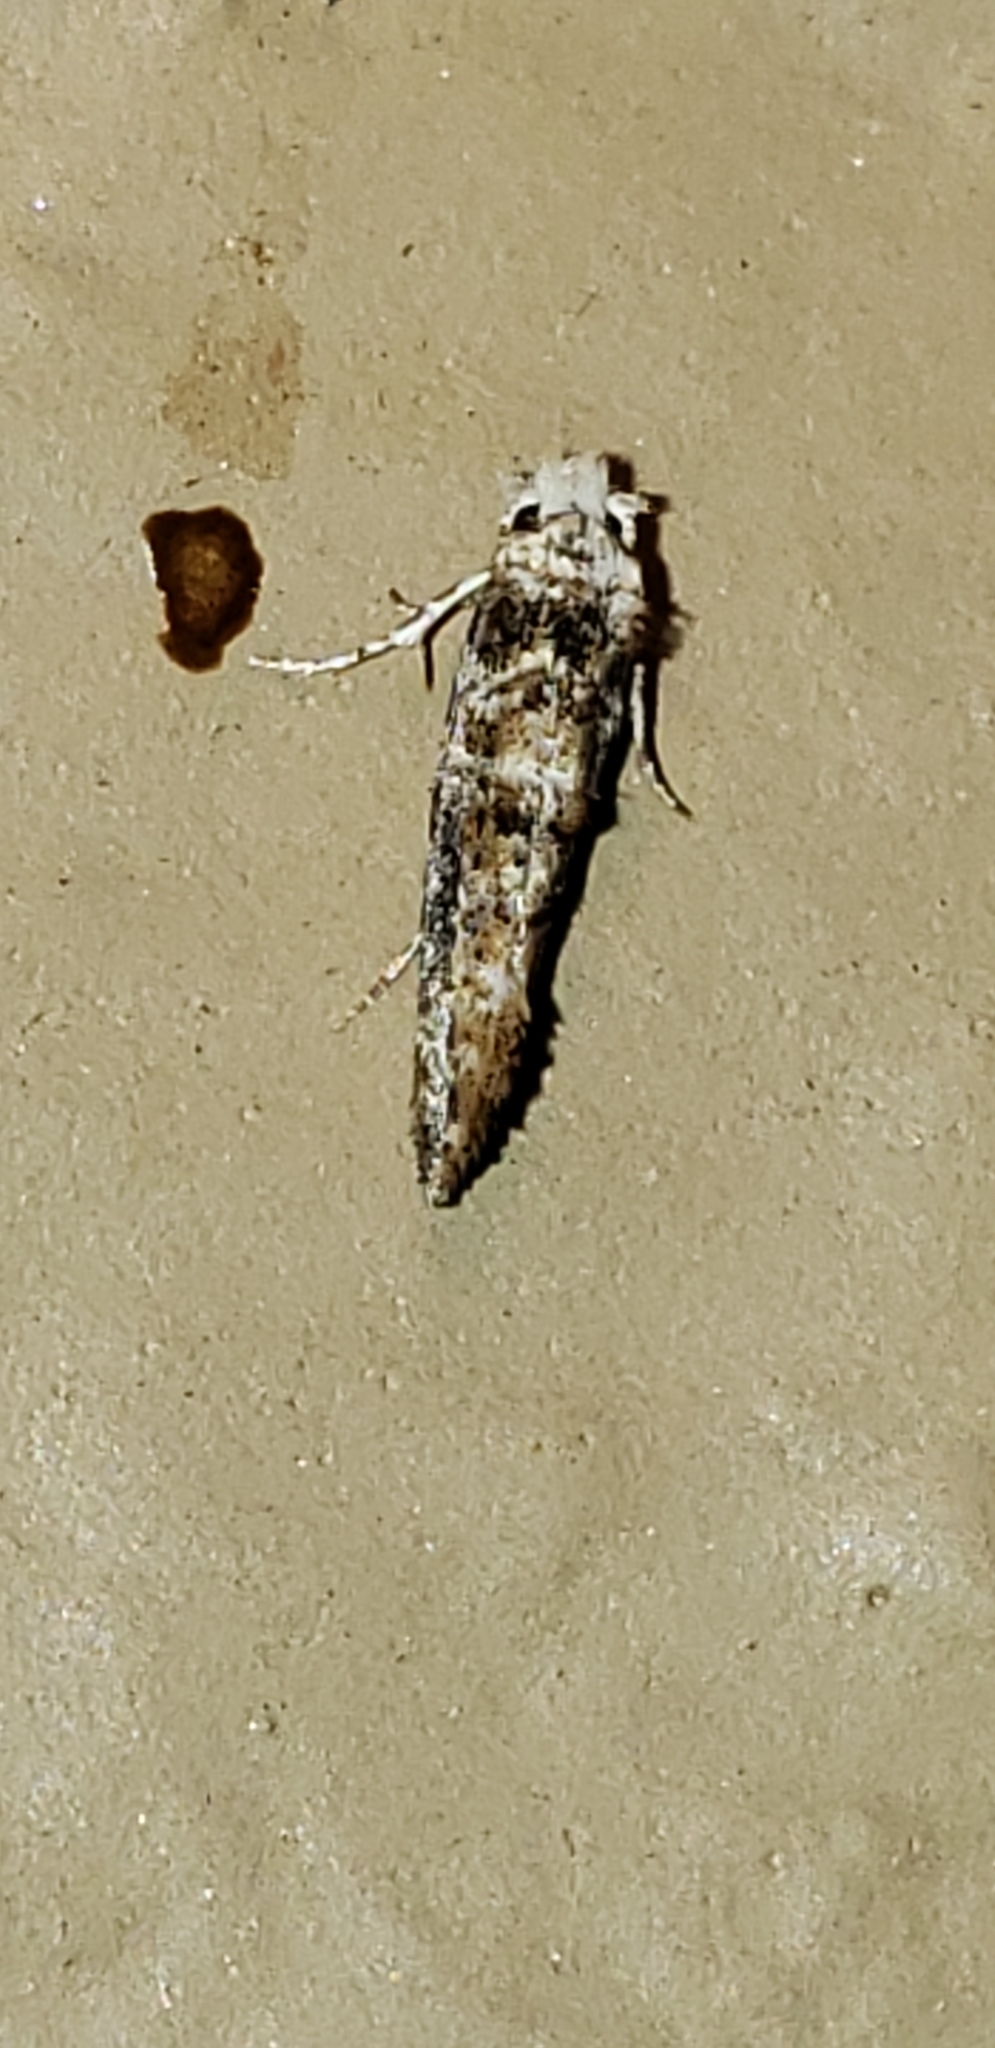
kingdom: Animalia
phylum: Arthropoda
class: Insecta
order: Lepidoptera
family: Tineidae
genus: Xylesthia
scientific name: Xylesthia pruniramiella
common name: Clemens' bark moth
